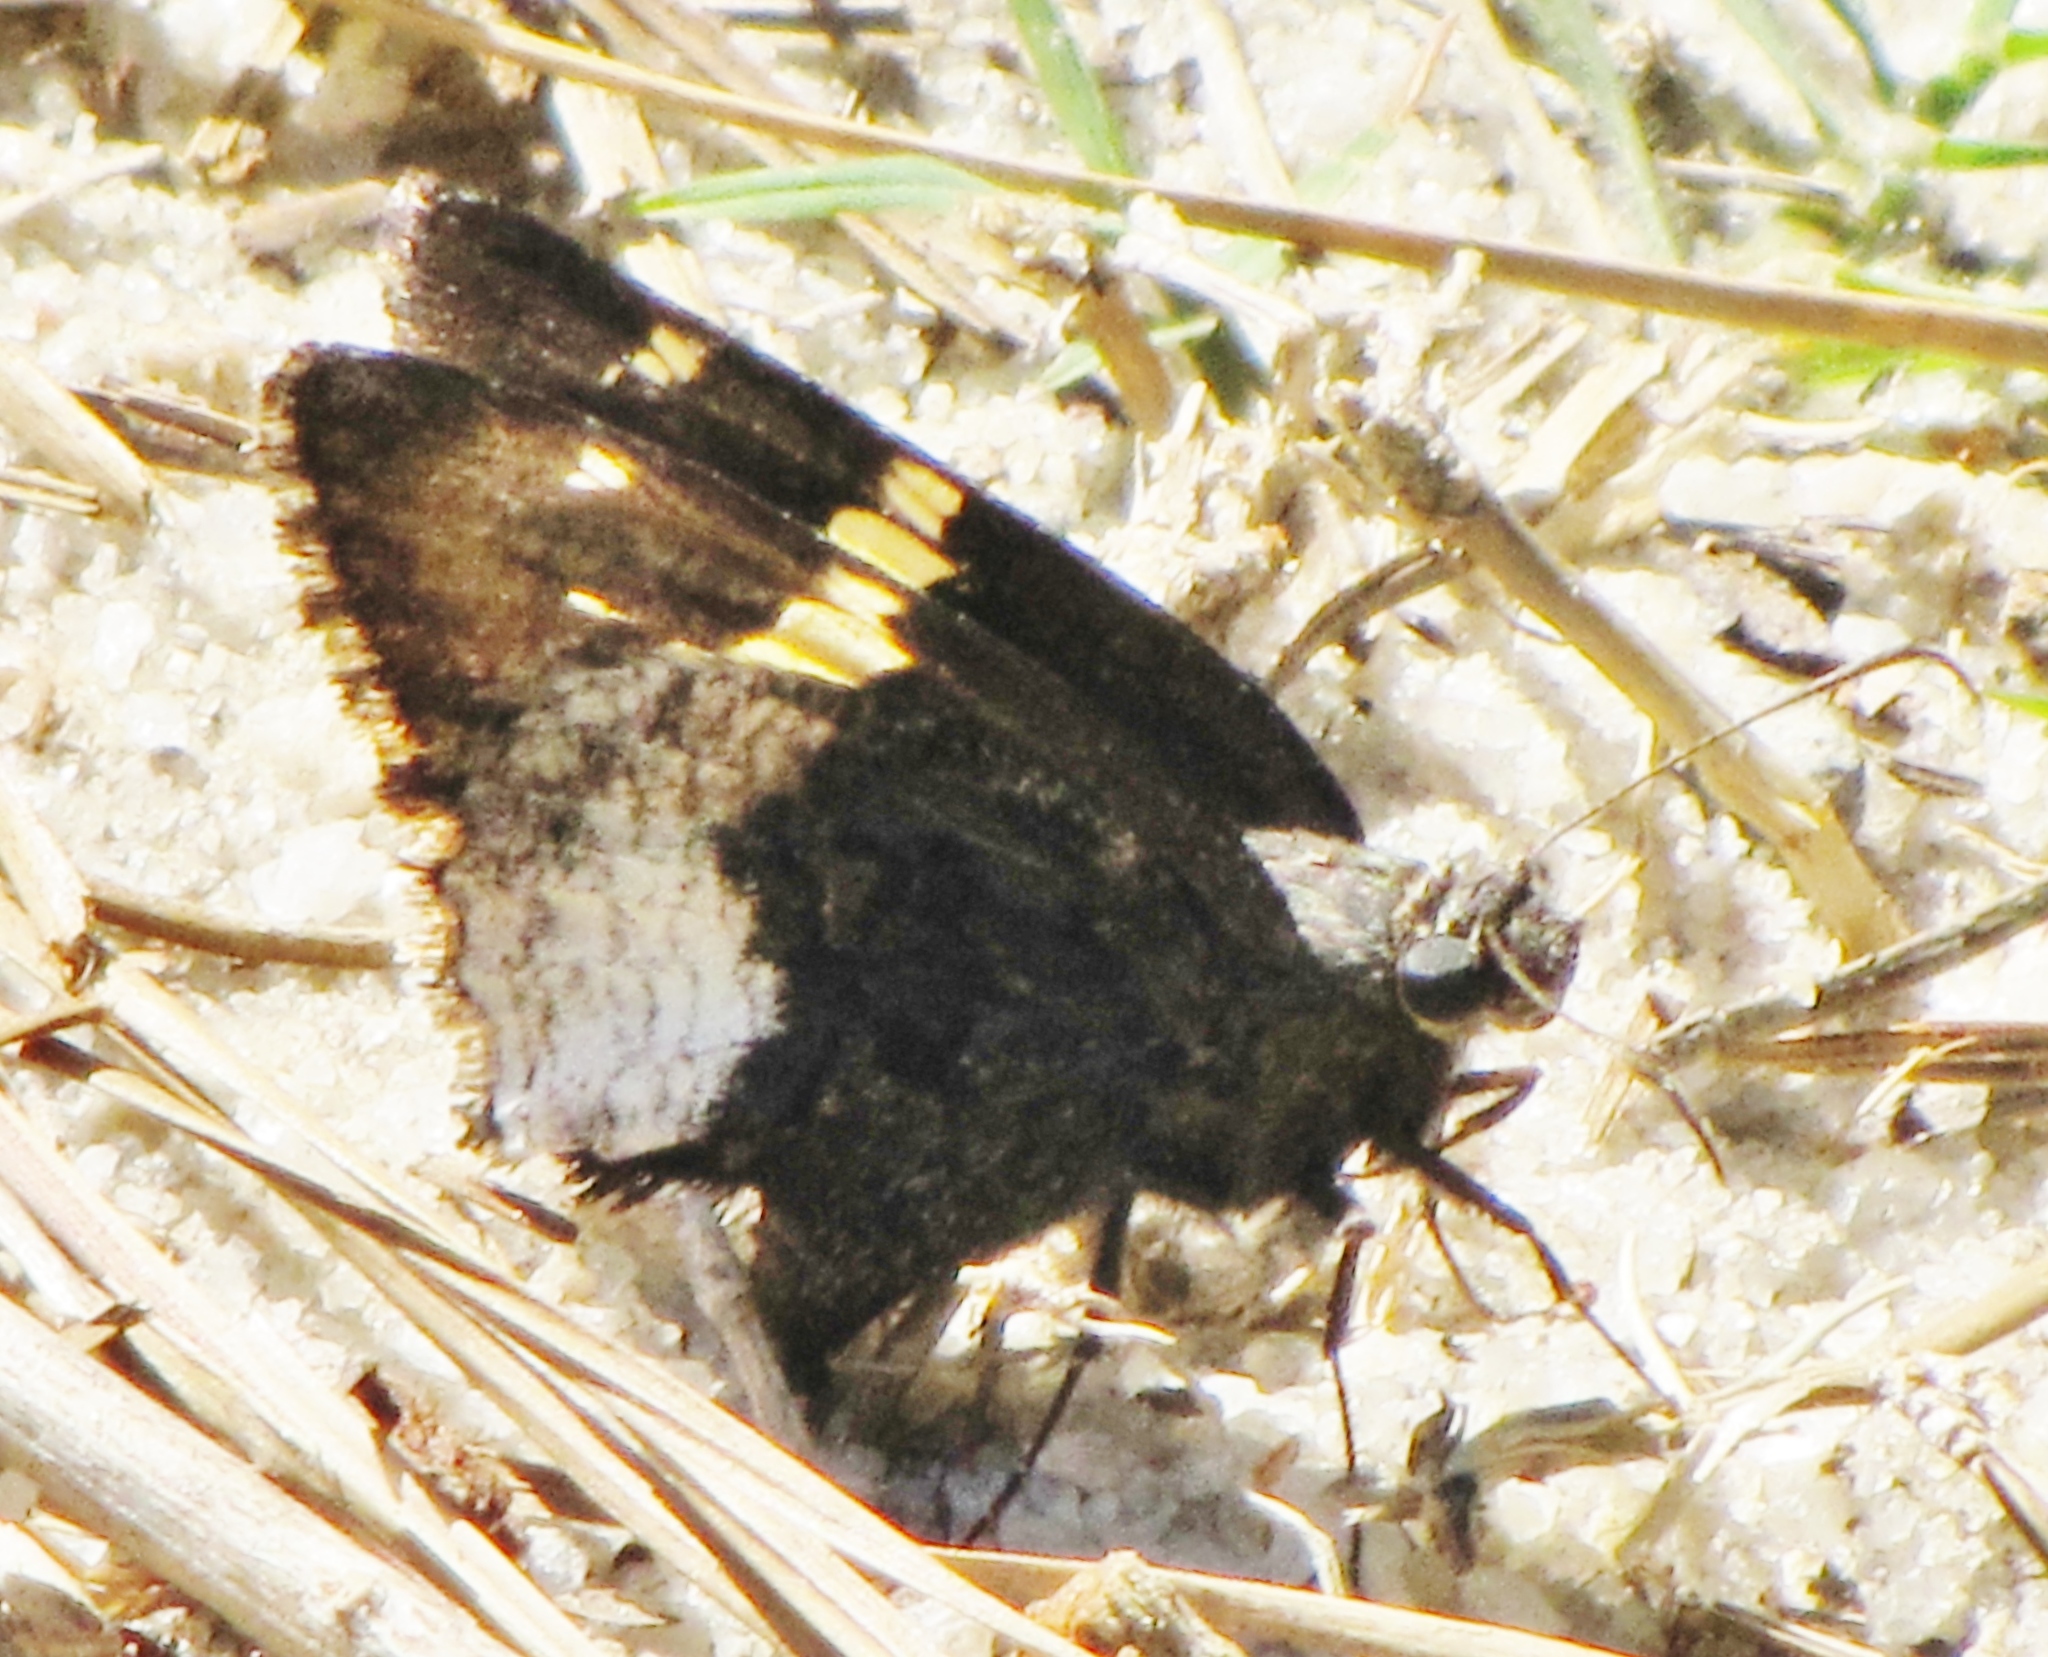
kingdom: Animalia
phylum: Arthropoda
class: Insecta
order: Lepidoptera
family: Hesperiidae
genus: Thorybes
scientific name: Thorybes lyciades
